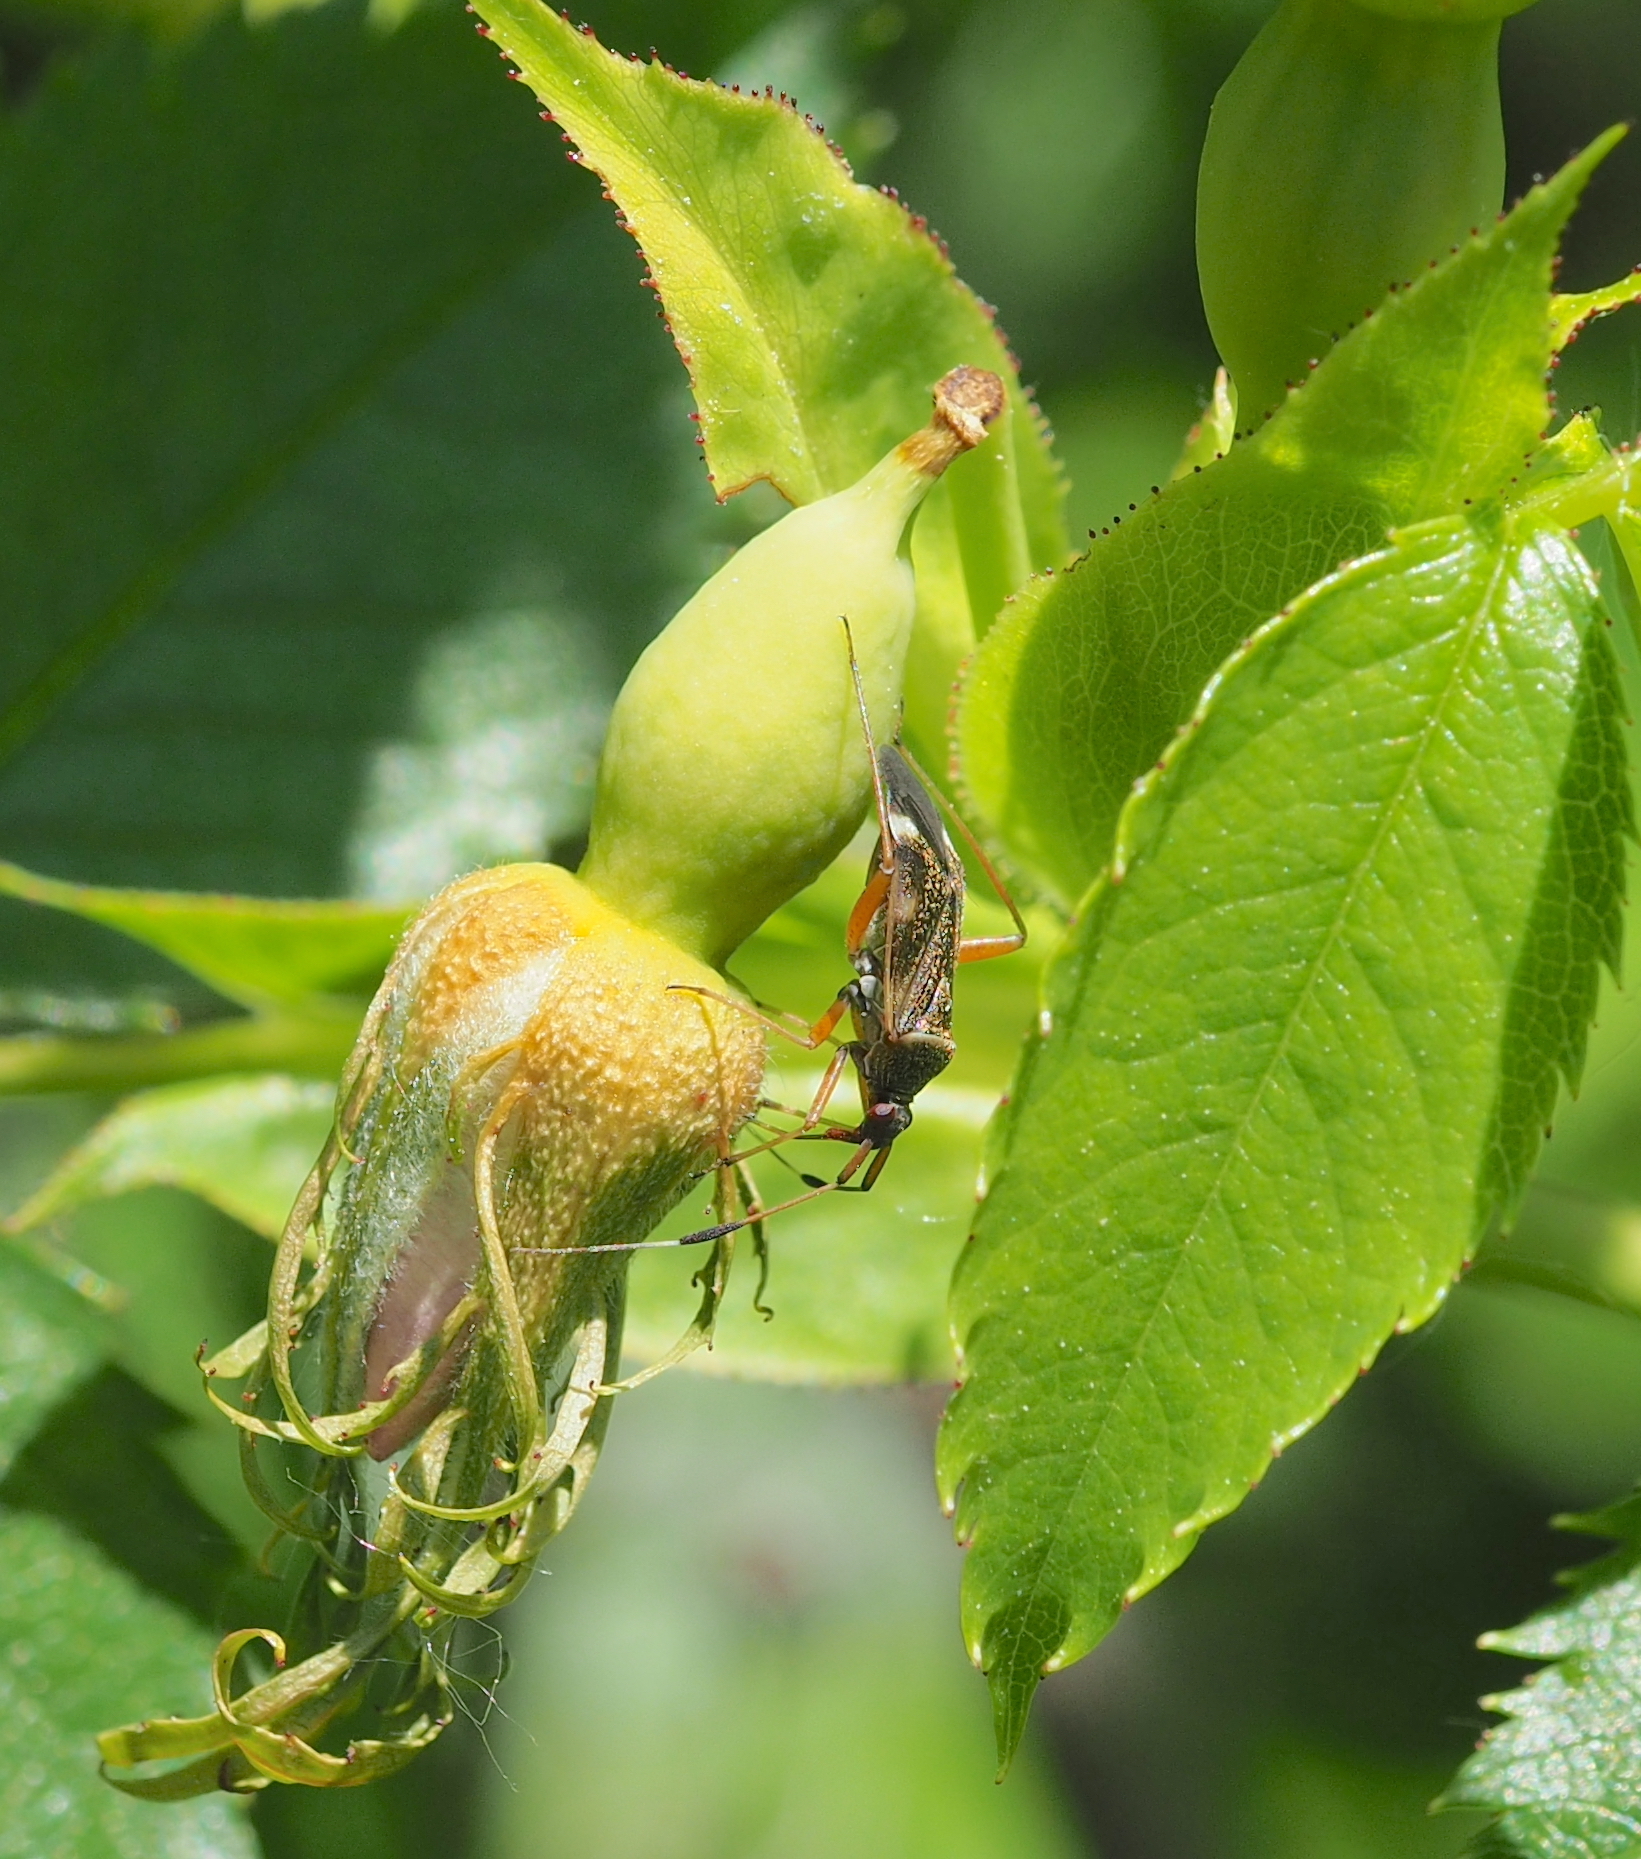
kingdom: Animalia
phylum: Arthropoda
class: Insecta
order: Hemiptera
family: Miridae
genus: Closterotomus
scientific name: Closterotomus biclavatus
